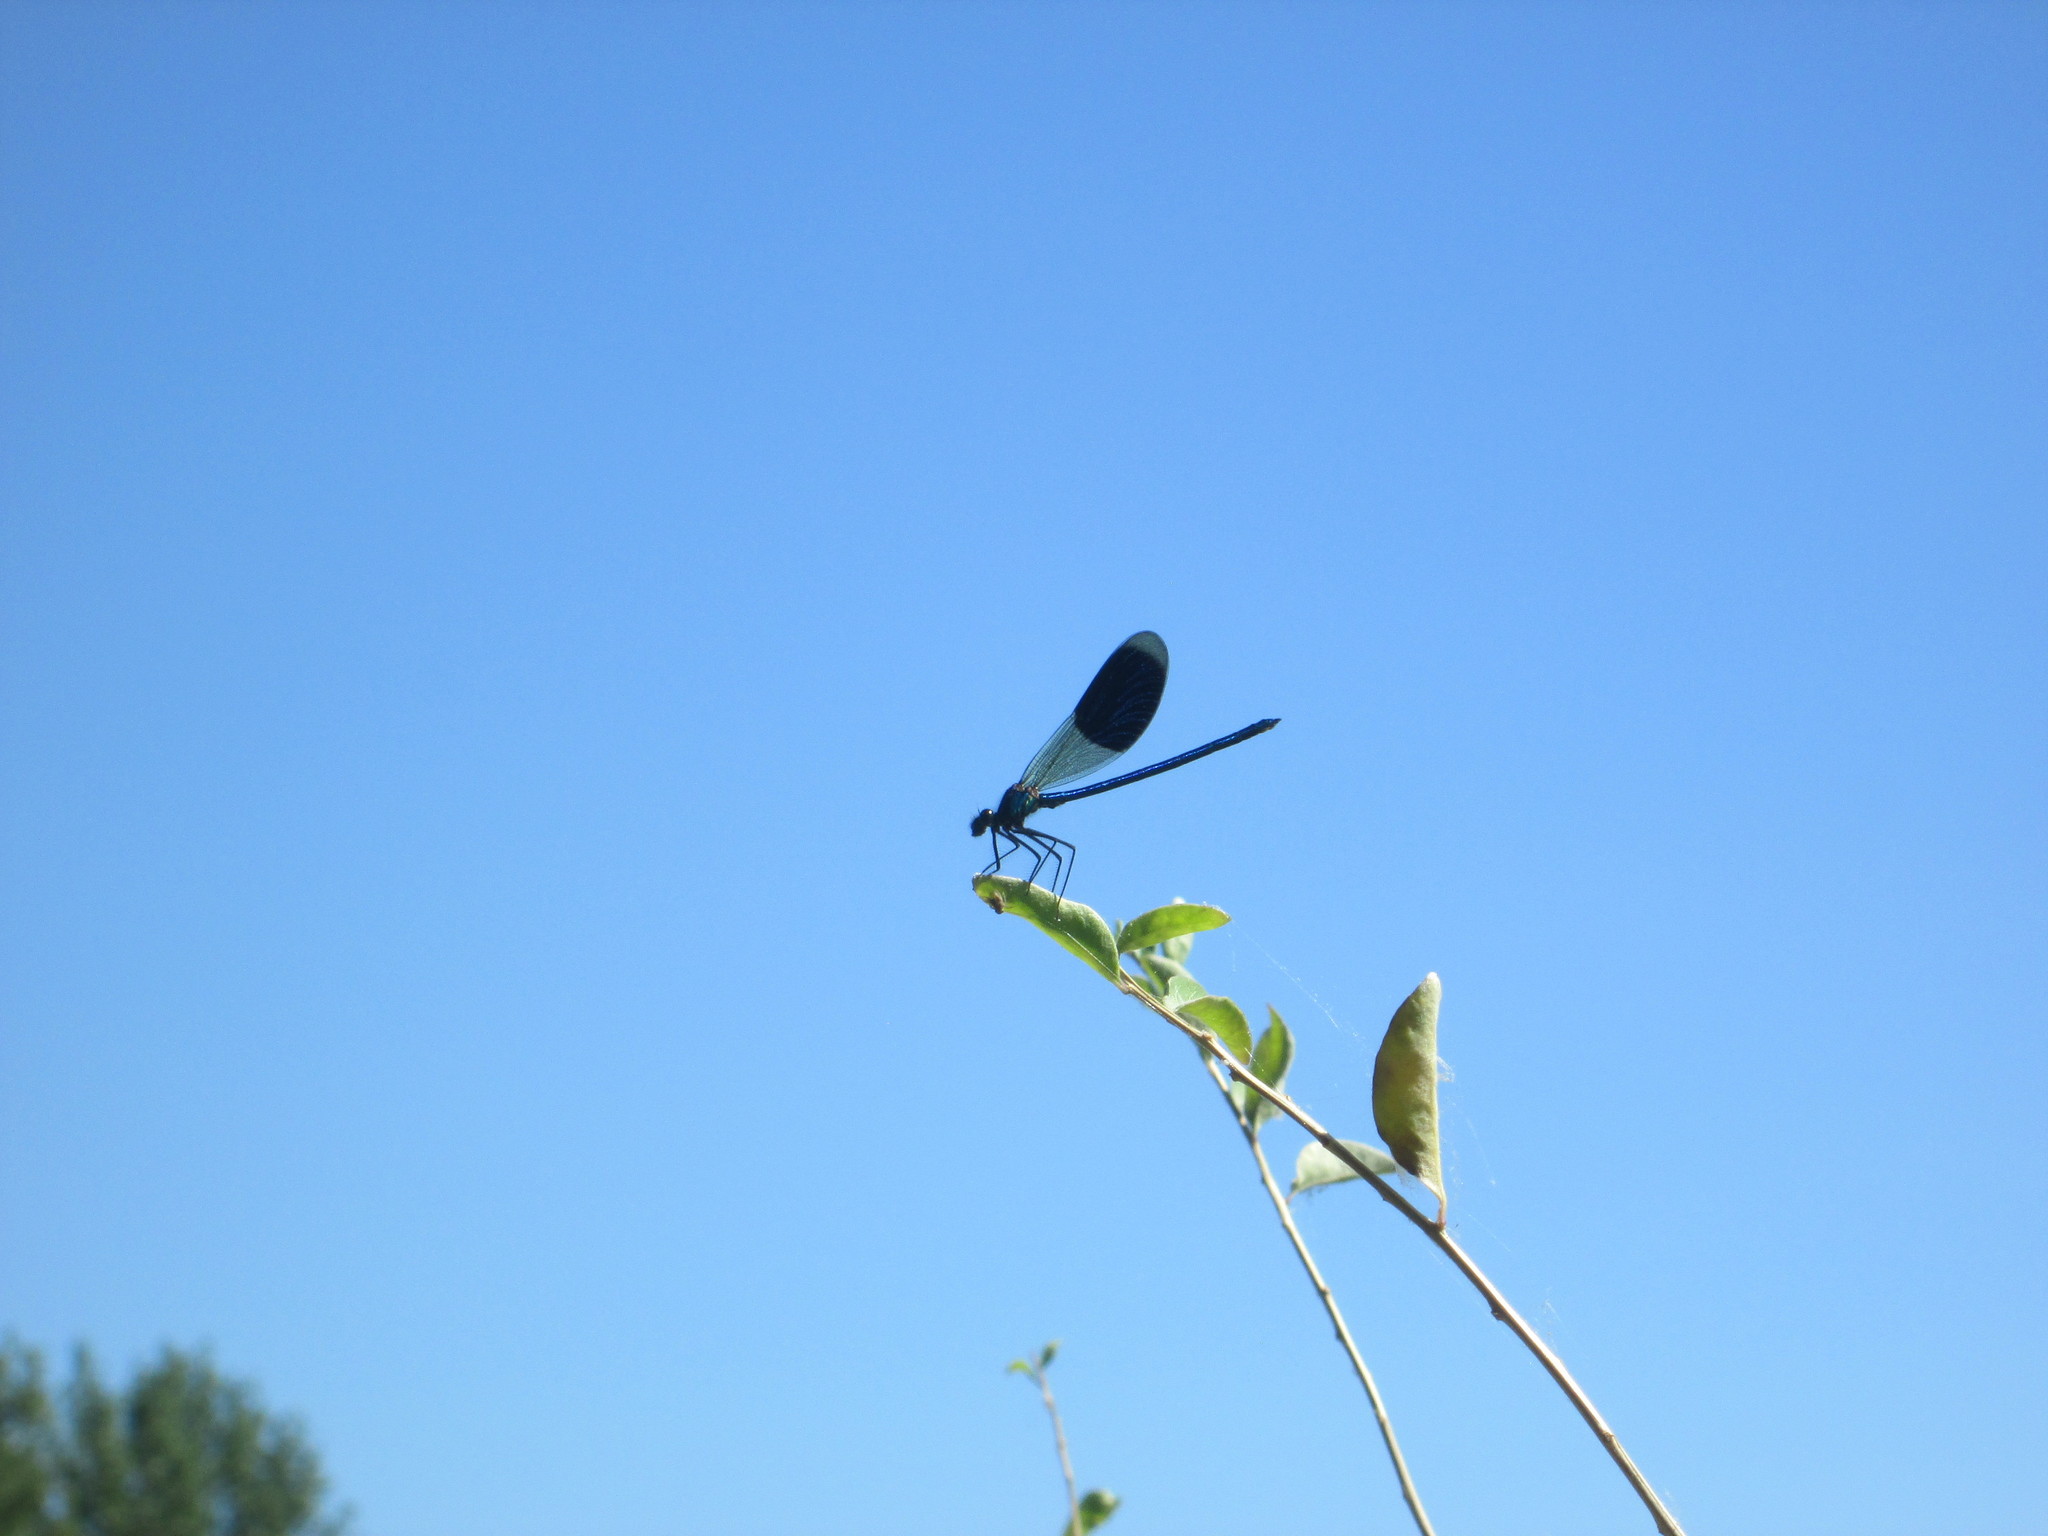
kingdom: Animalia
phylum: Arthropoda
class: Insecta
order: Odonata
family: Calopterygidae
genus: Calopteryx
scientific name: Calopteryx splendens
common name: Banded demoiselle
